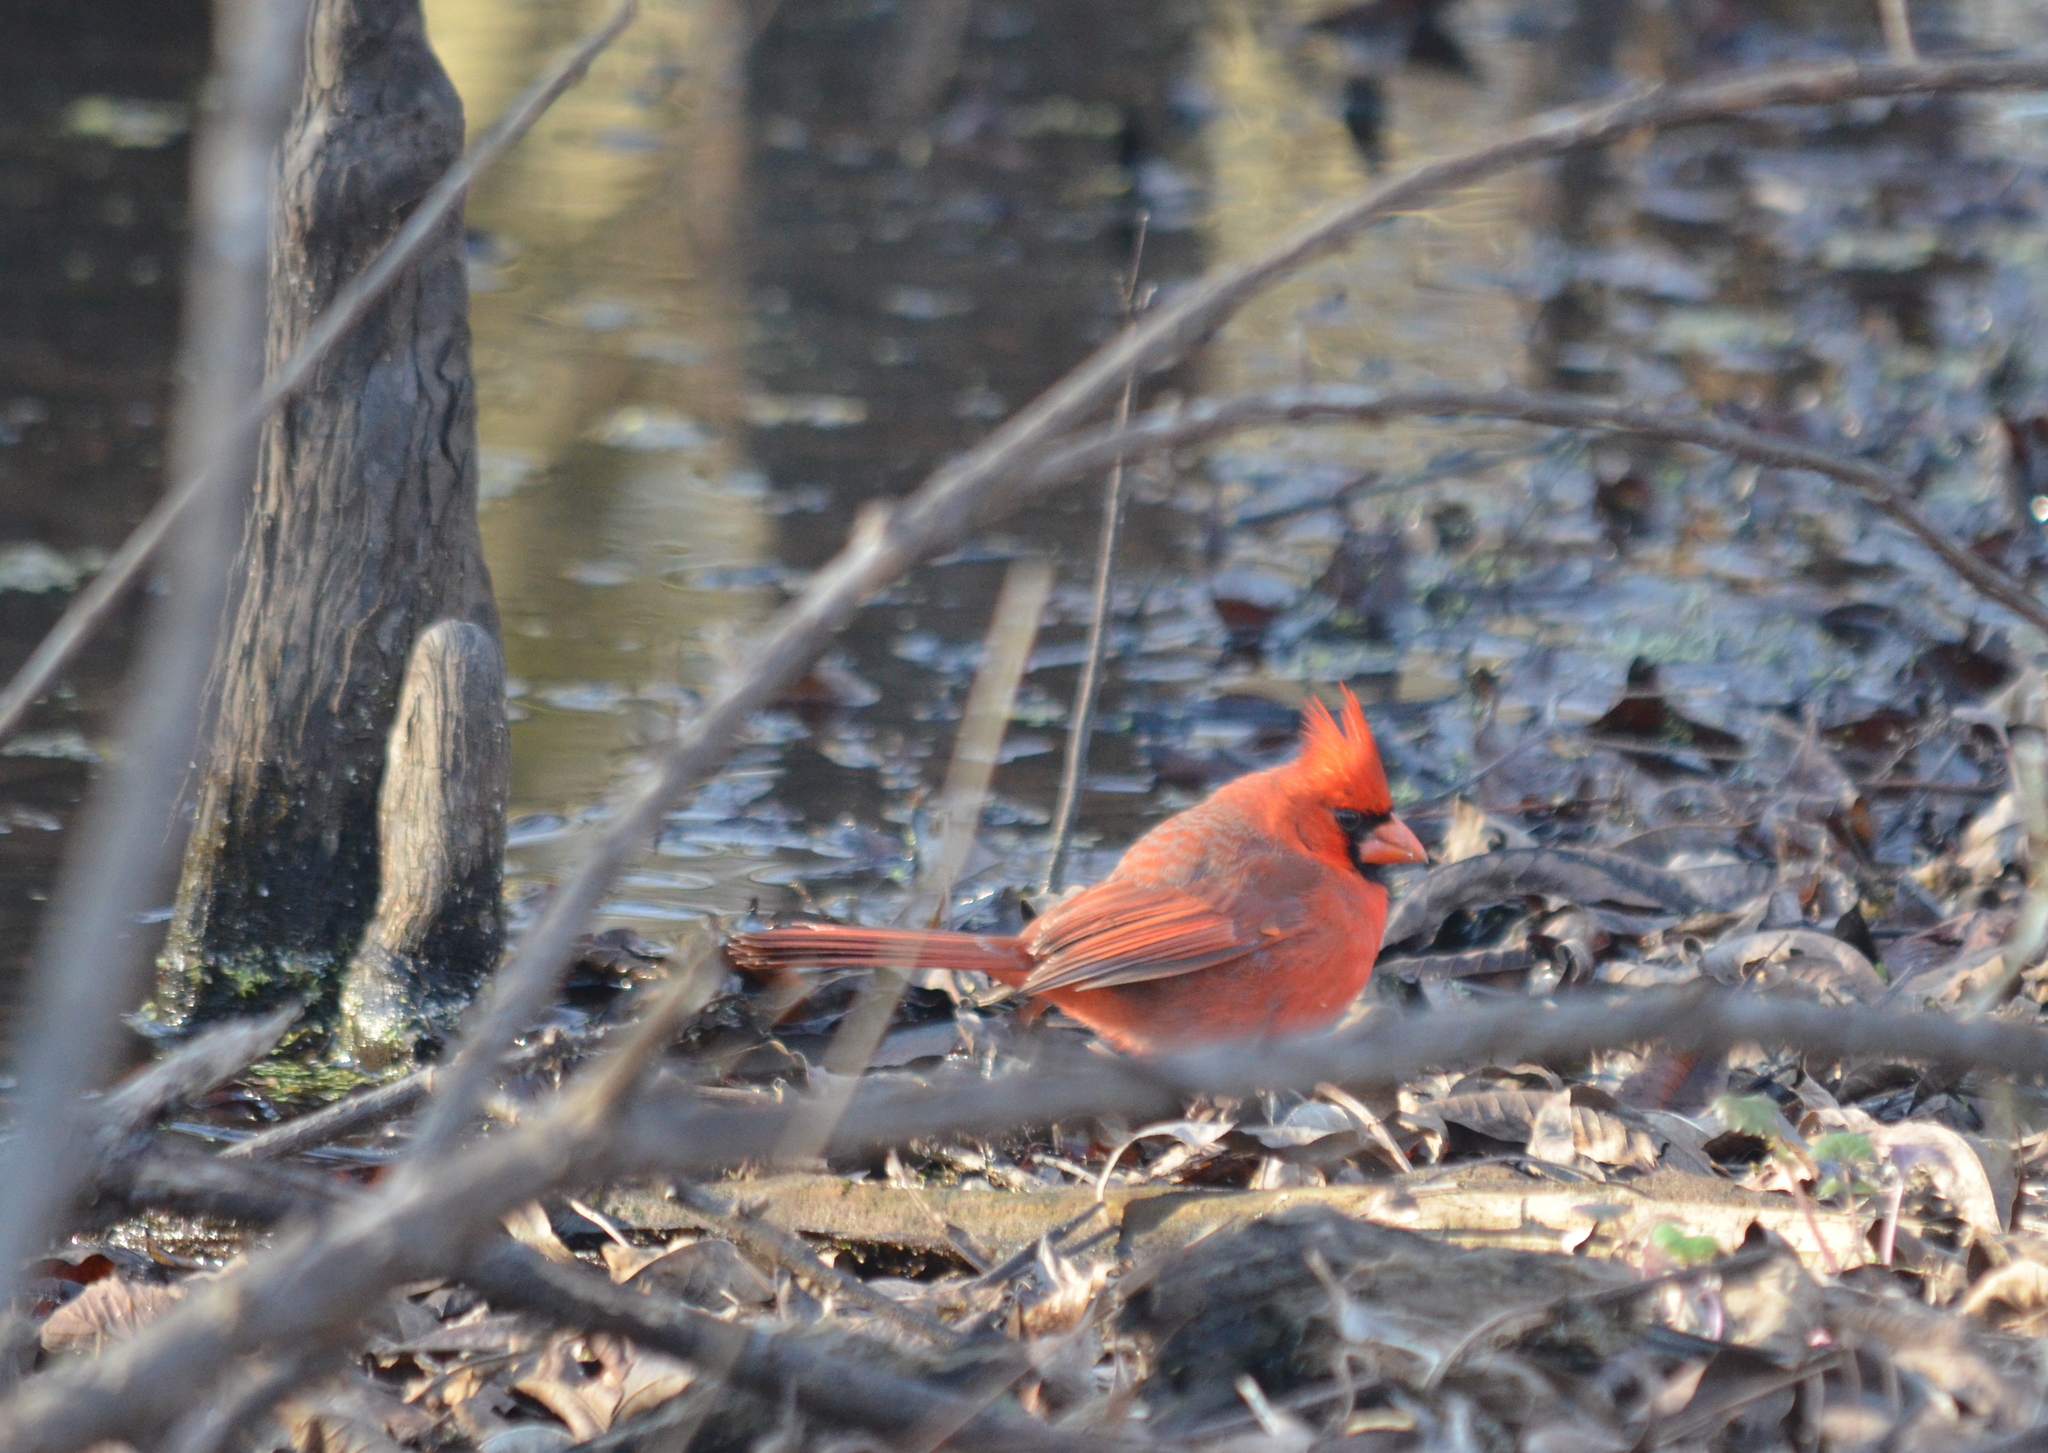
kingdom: Animalia
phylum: Chordata
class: Aves
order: Passeriformes
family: Cardinalidae
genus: Cardinalis
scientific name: Cardinalis cardinalis
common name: Northern cardinal
